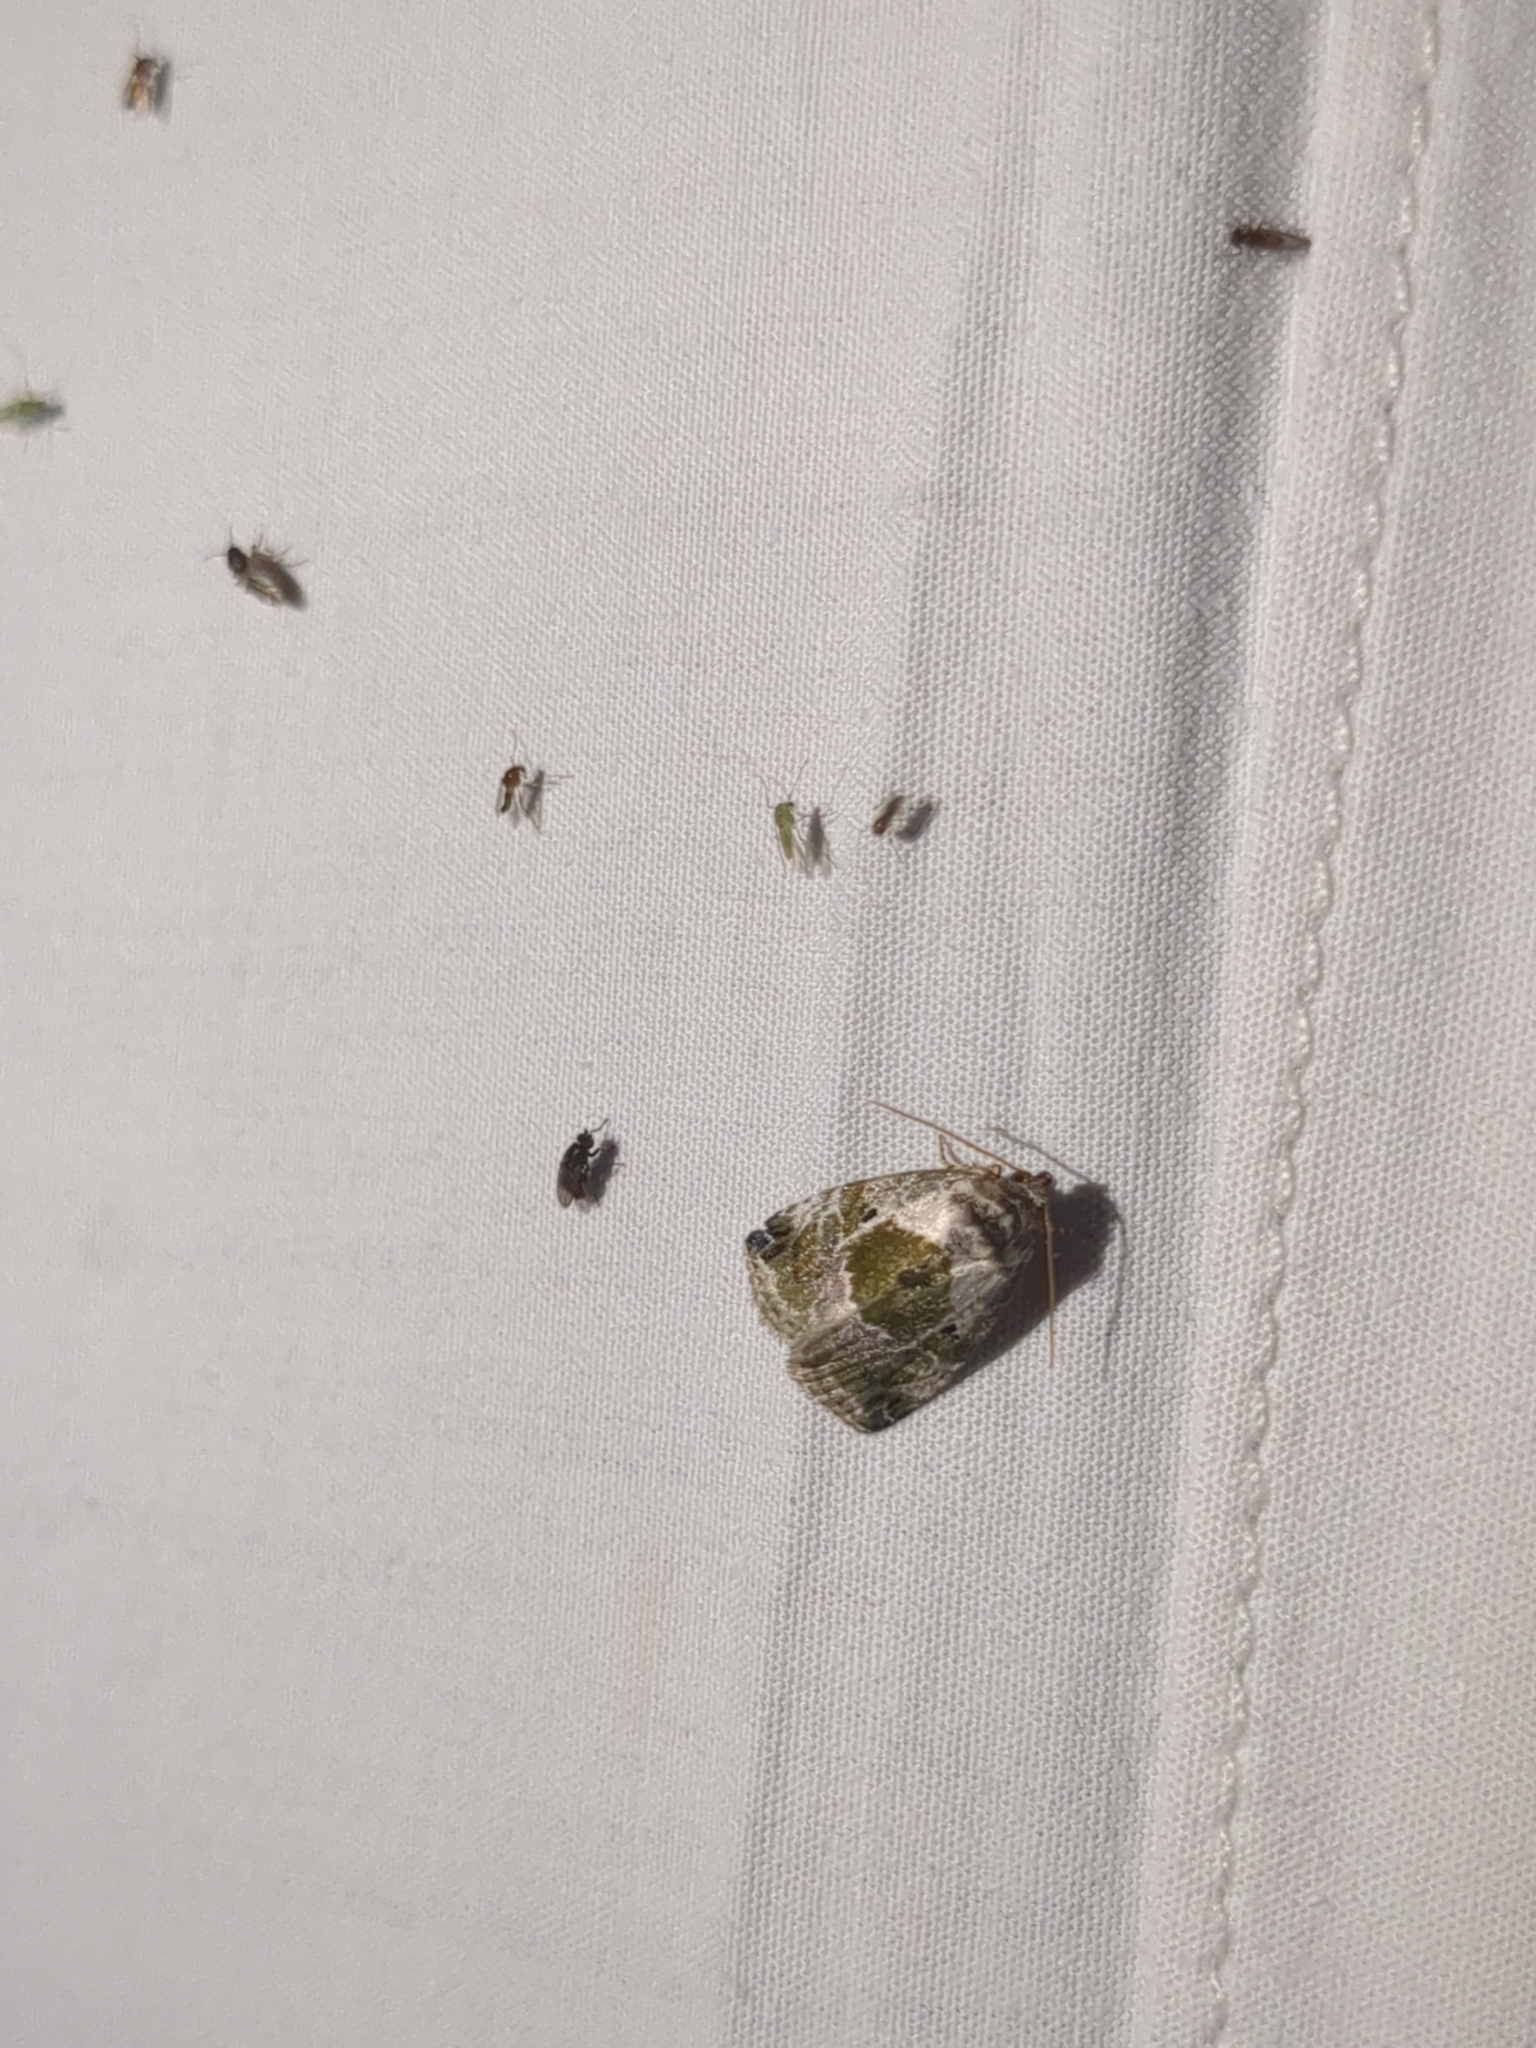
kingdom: Animalia
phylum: Arthropoda
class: Insecta
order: Lepidoptera
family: Noctuidae
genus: Maliattha
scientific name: Maliattha synochitis
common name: Black-dotted glyph
